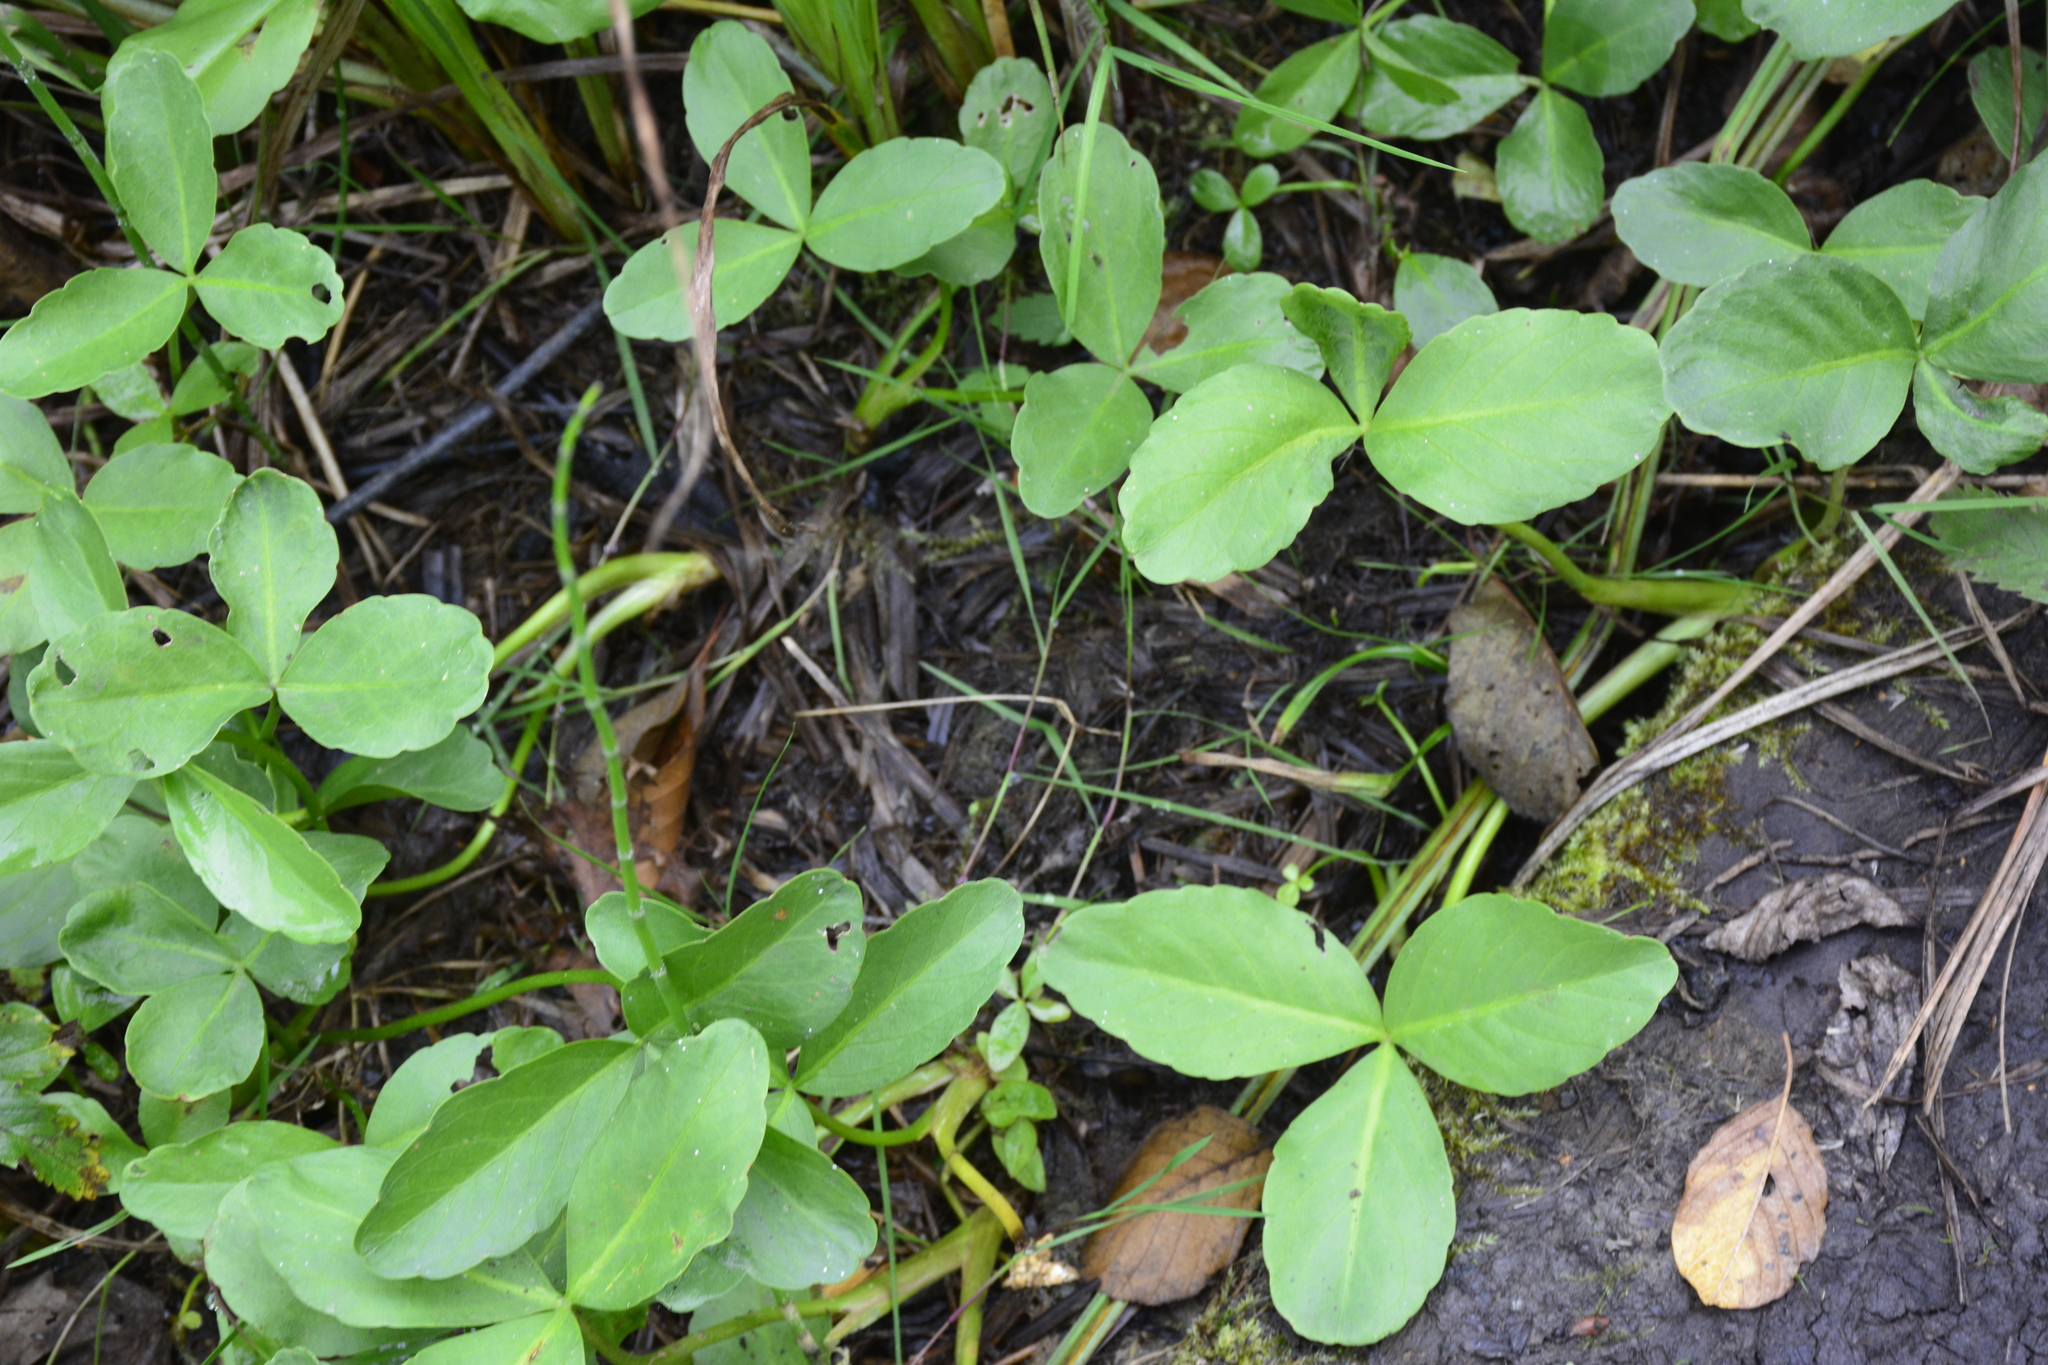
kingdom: Plantae
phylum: Tracheophyta
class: Magnoliopsida
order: Asterales
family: Menyanthaceae
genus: Menyanthes
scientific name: Menyanthes trifoliata
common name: Bogbean
